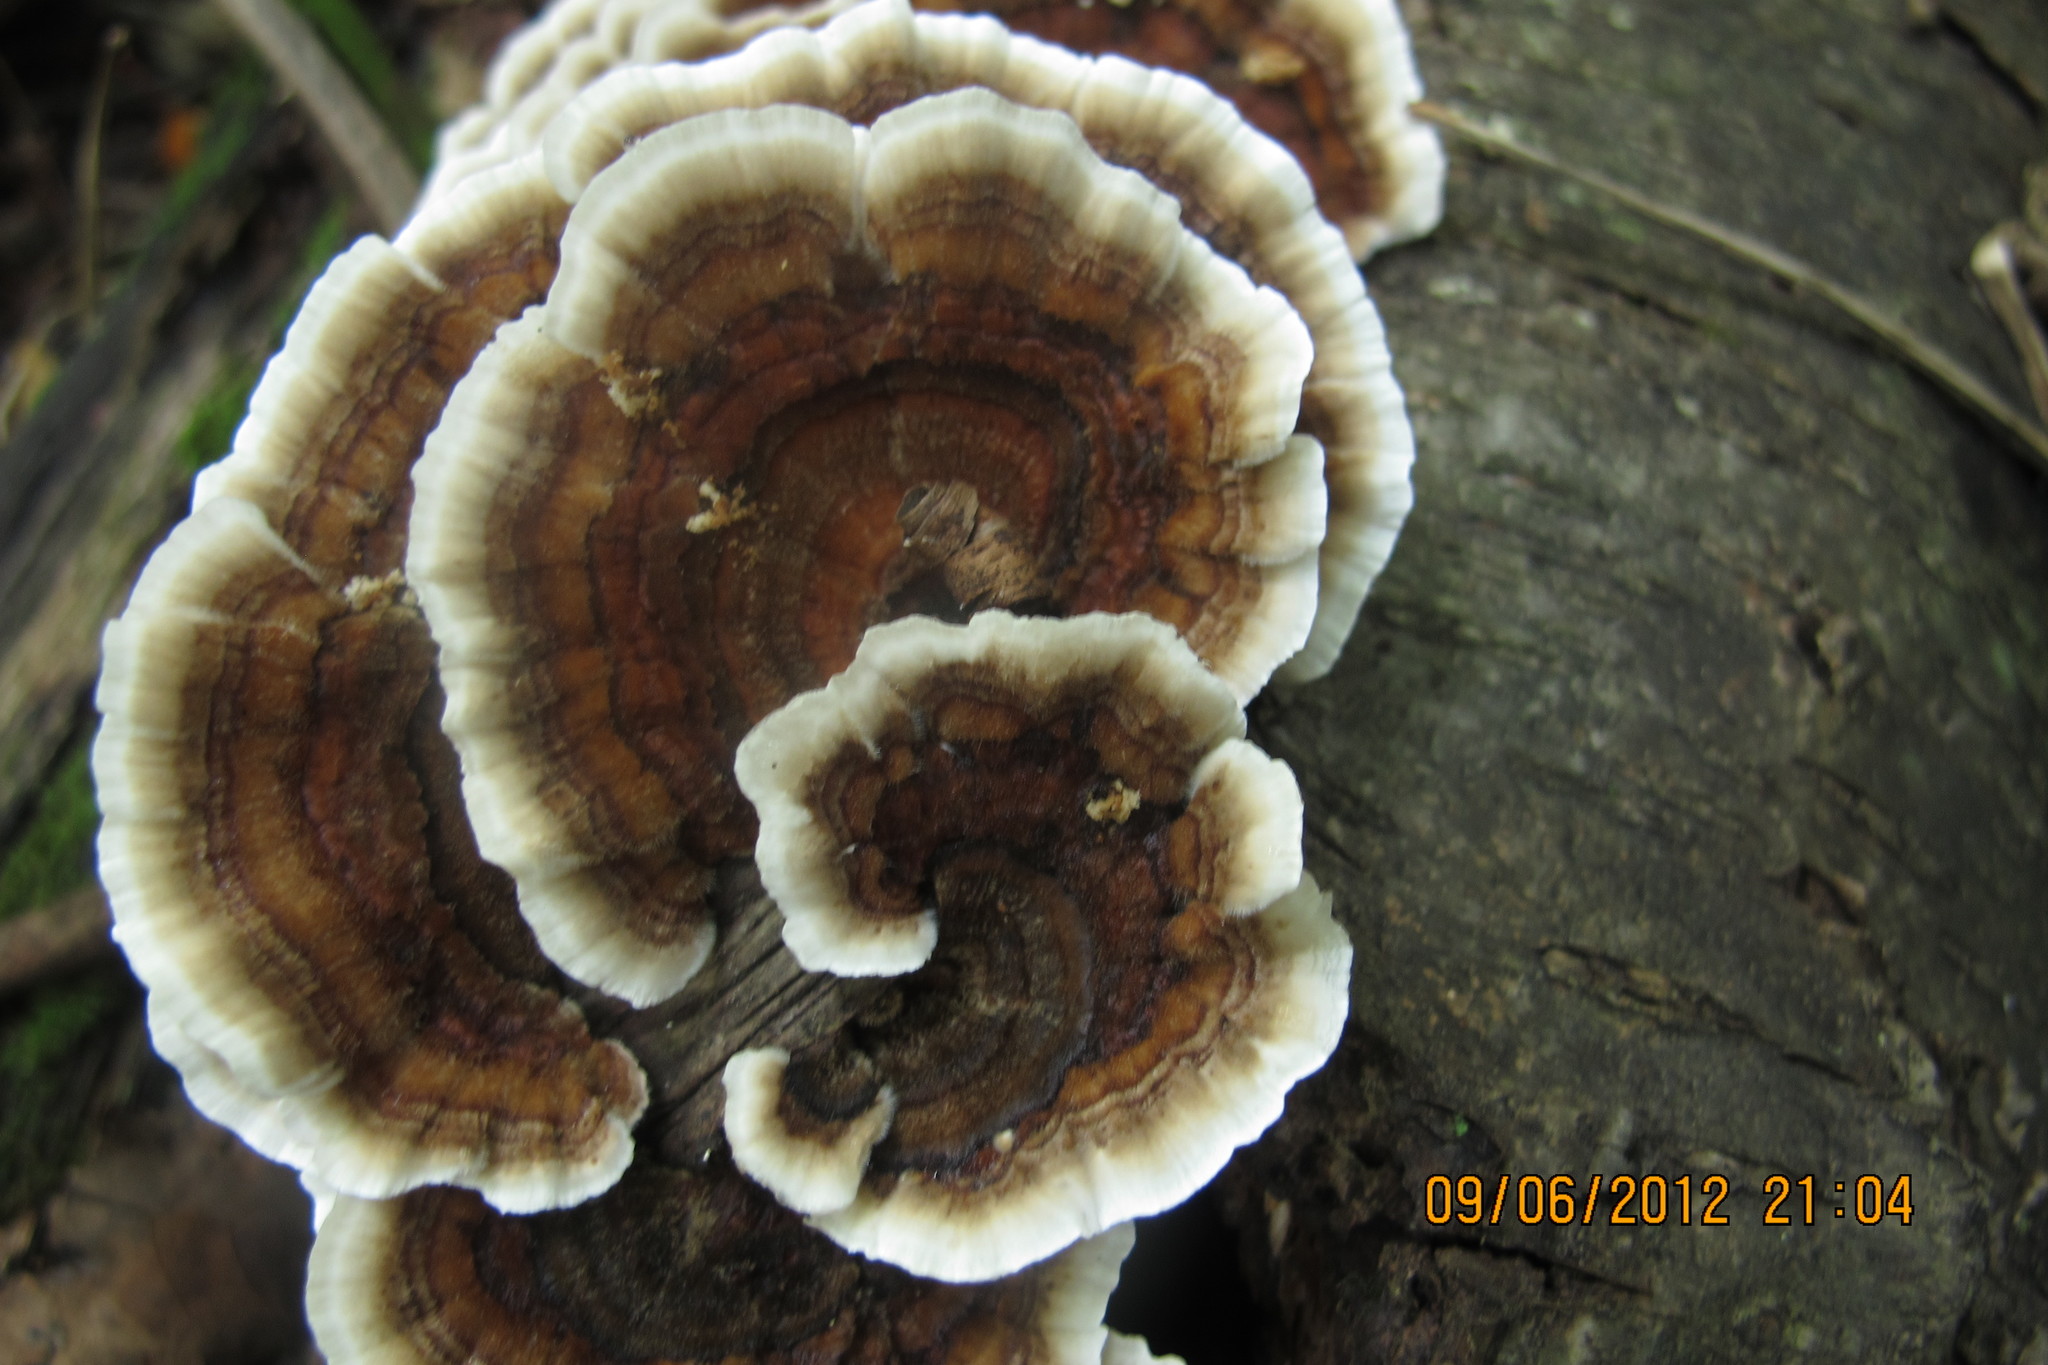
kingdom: Fungi
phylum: Basidiomycota
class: Agaricomycetes
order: Polyporales
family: Polyporaceae
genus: Trametes
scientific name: Trametes versicolor
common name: Turkeytail
